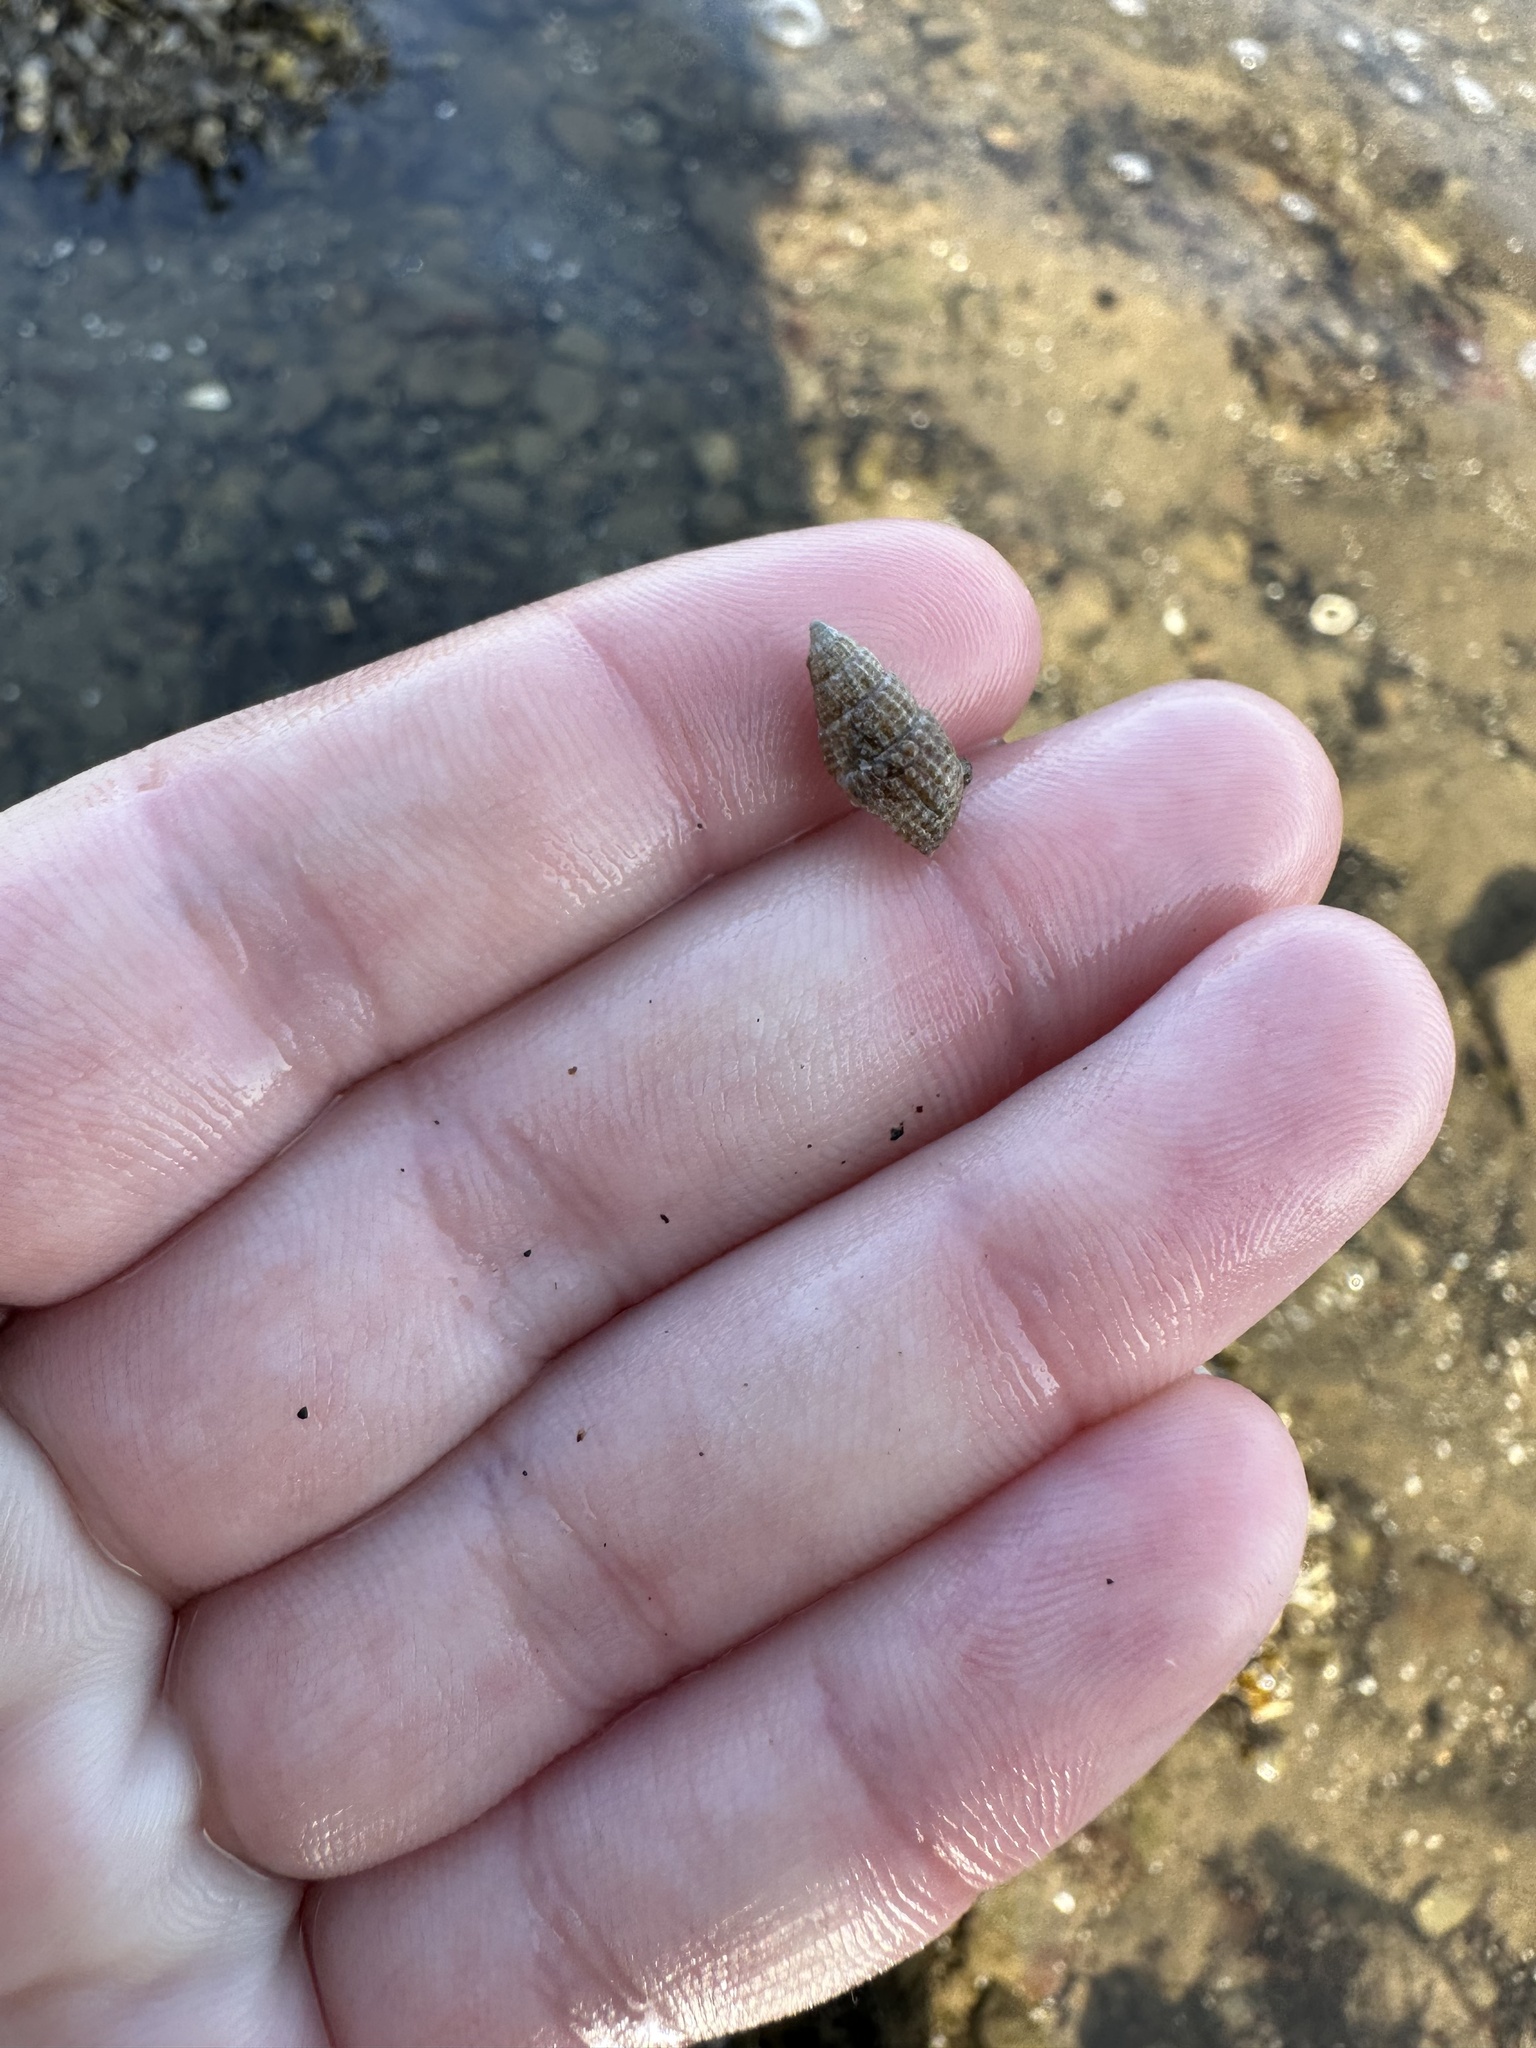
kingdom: Animalia
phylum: Mollusca
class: Gastropoda
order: Neogastropoda
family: Nassariidae
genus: Ilyanassa
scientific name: Ilyanassa trivittata
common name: Three-line mudsnail
